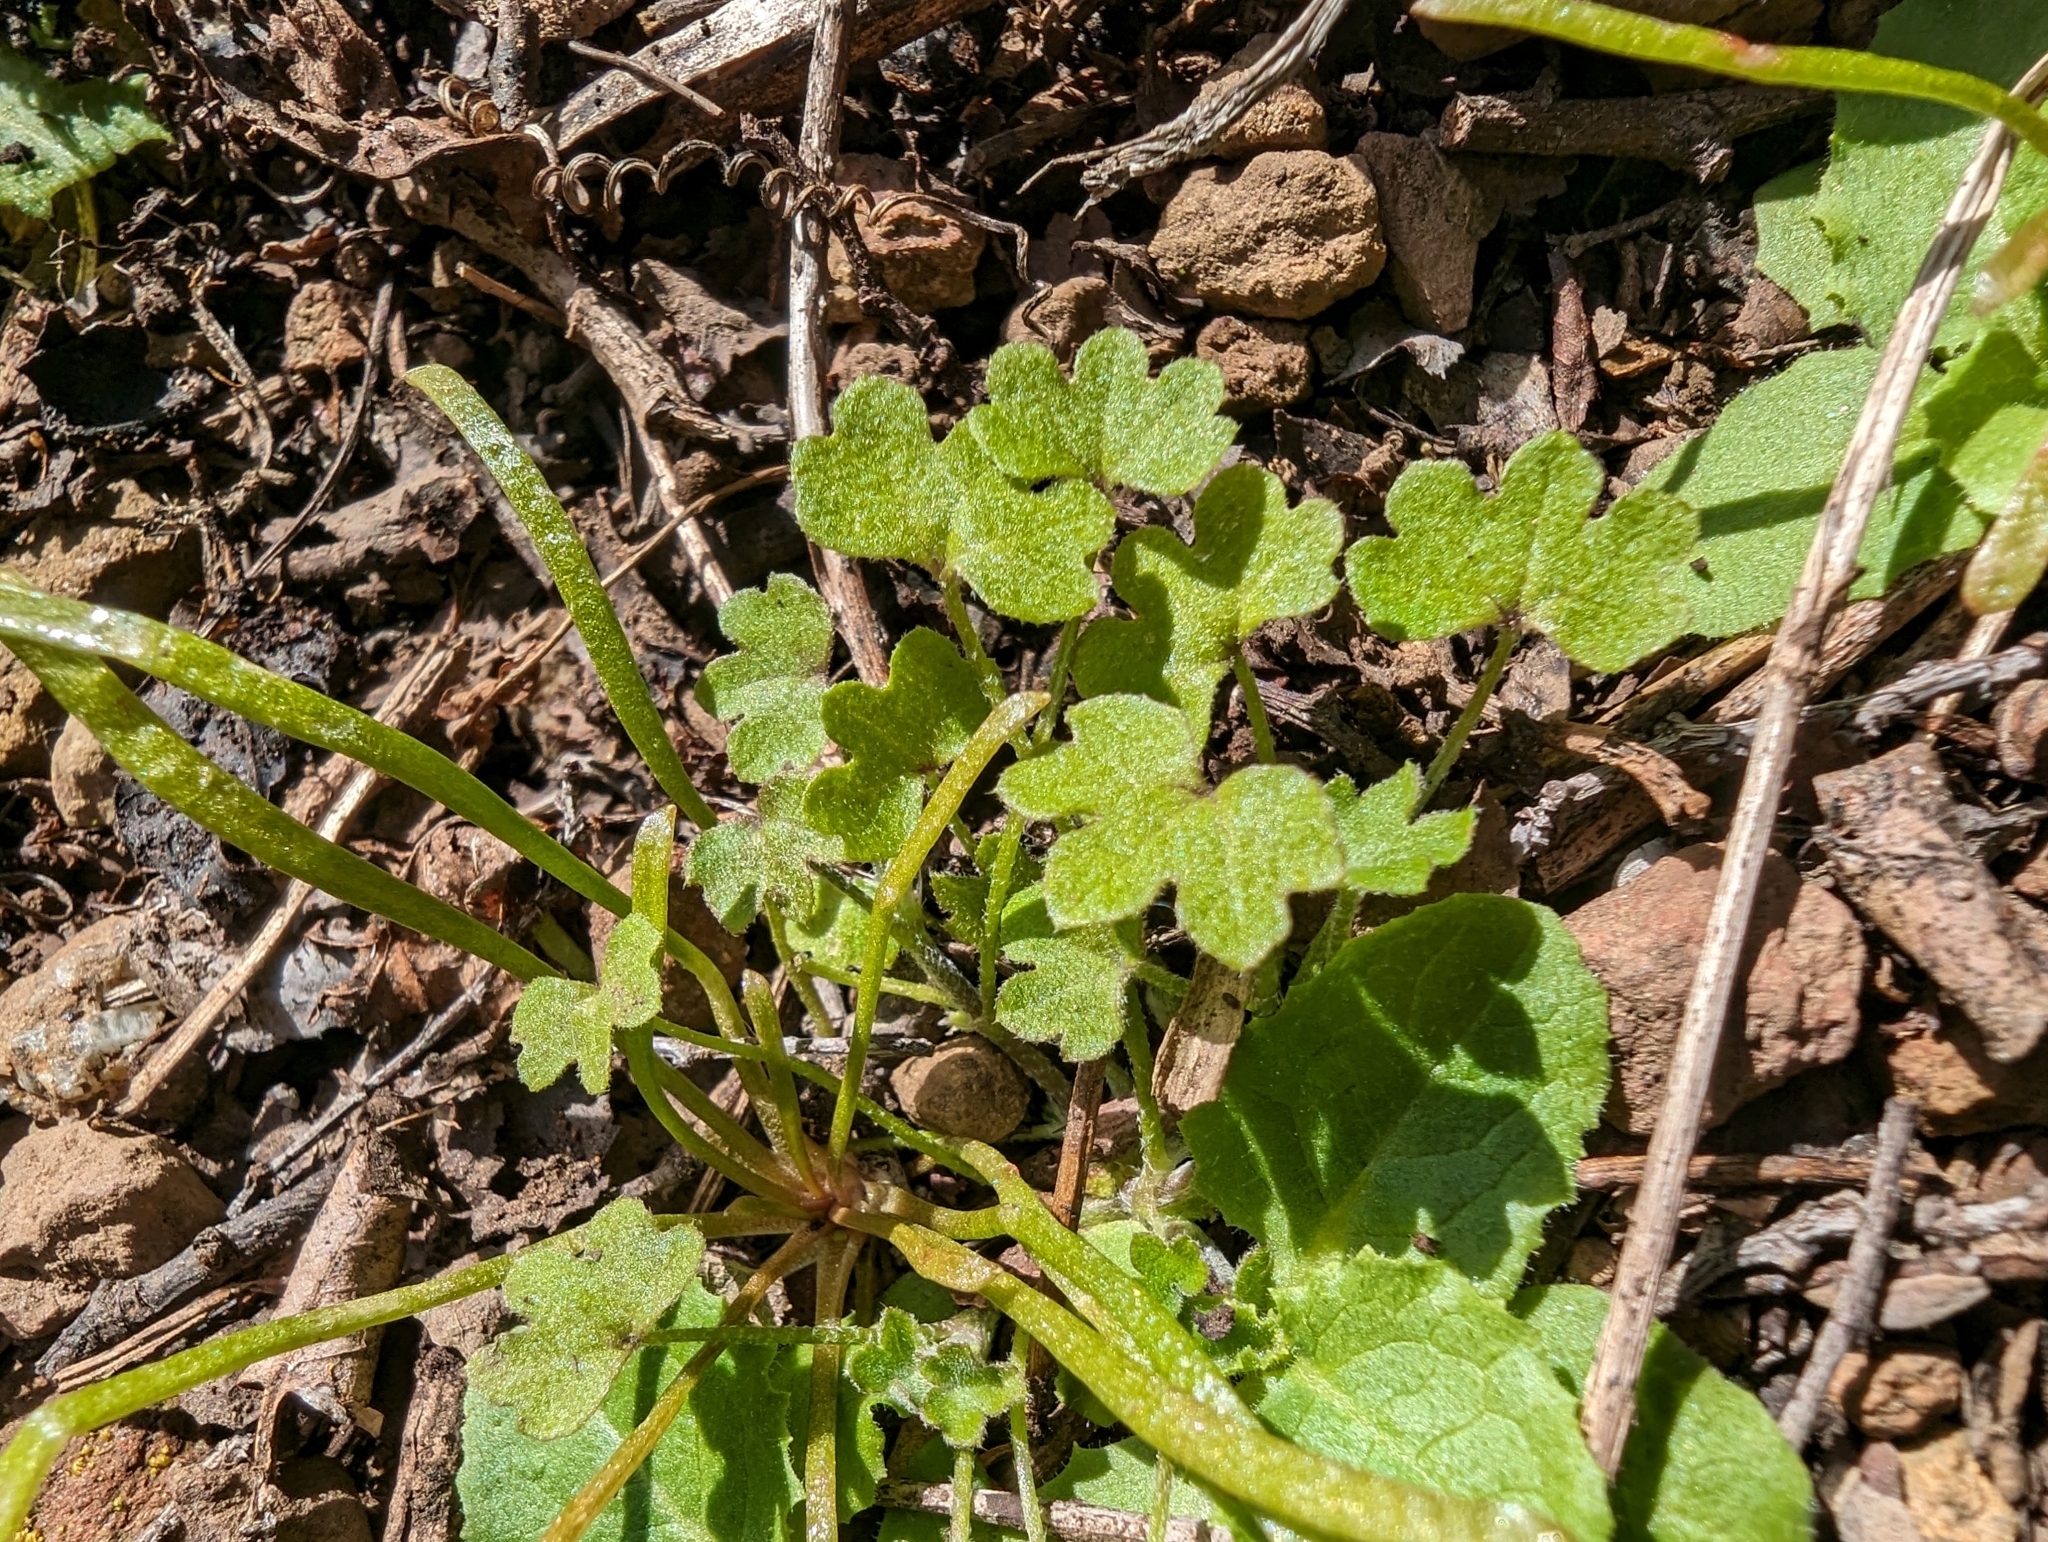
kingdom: Plantae
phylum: Tracheophyta
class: Magnoliopsida
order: Apiales
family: Apiaceae
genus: Bowlesia
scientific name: Bowlesia incana
